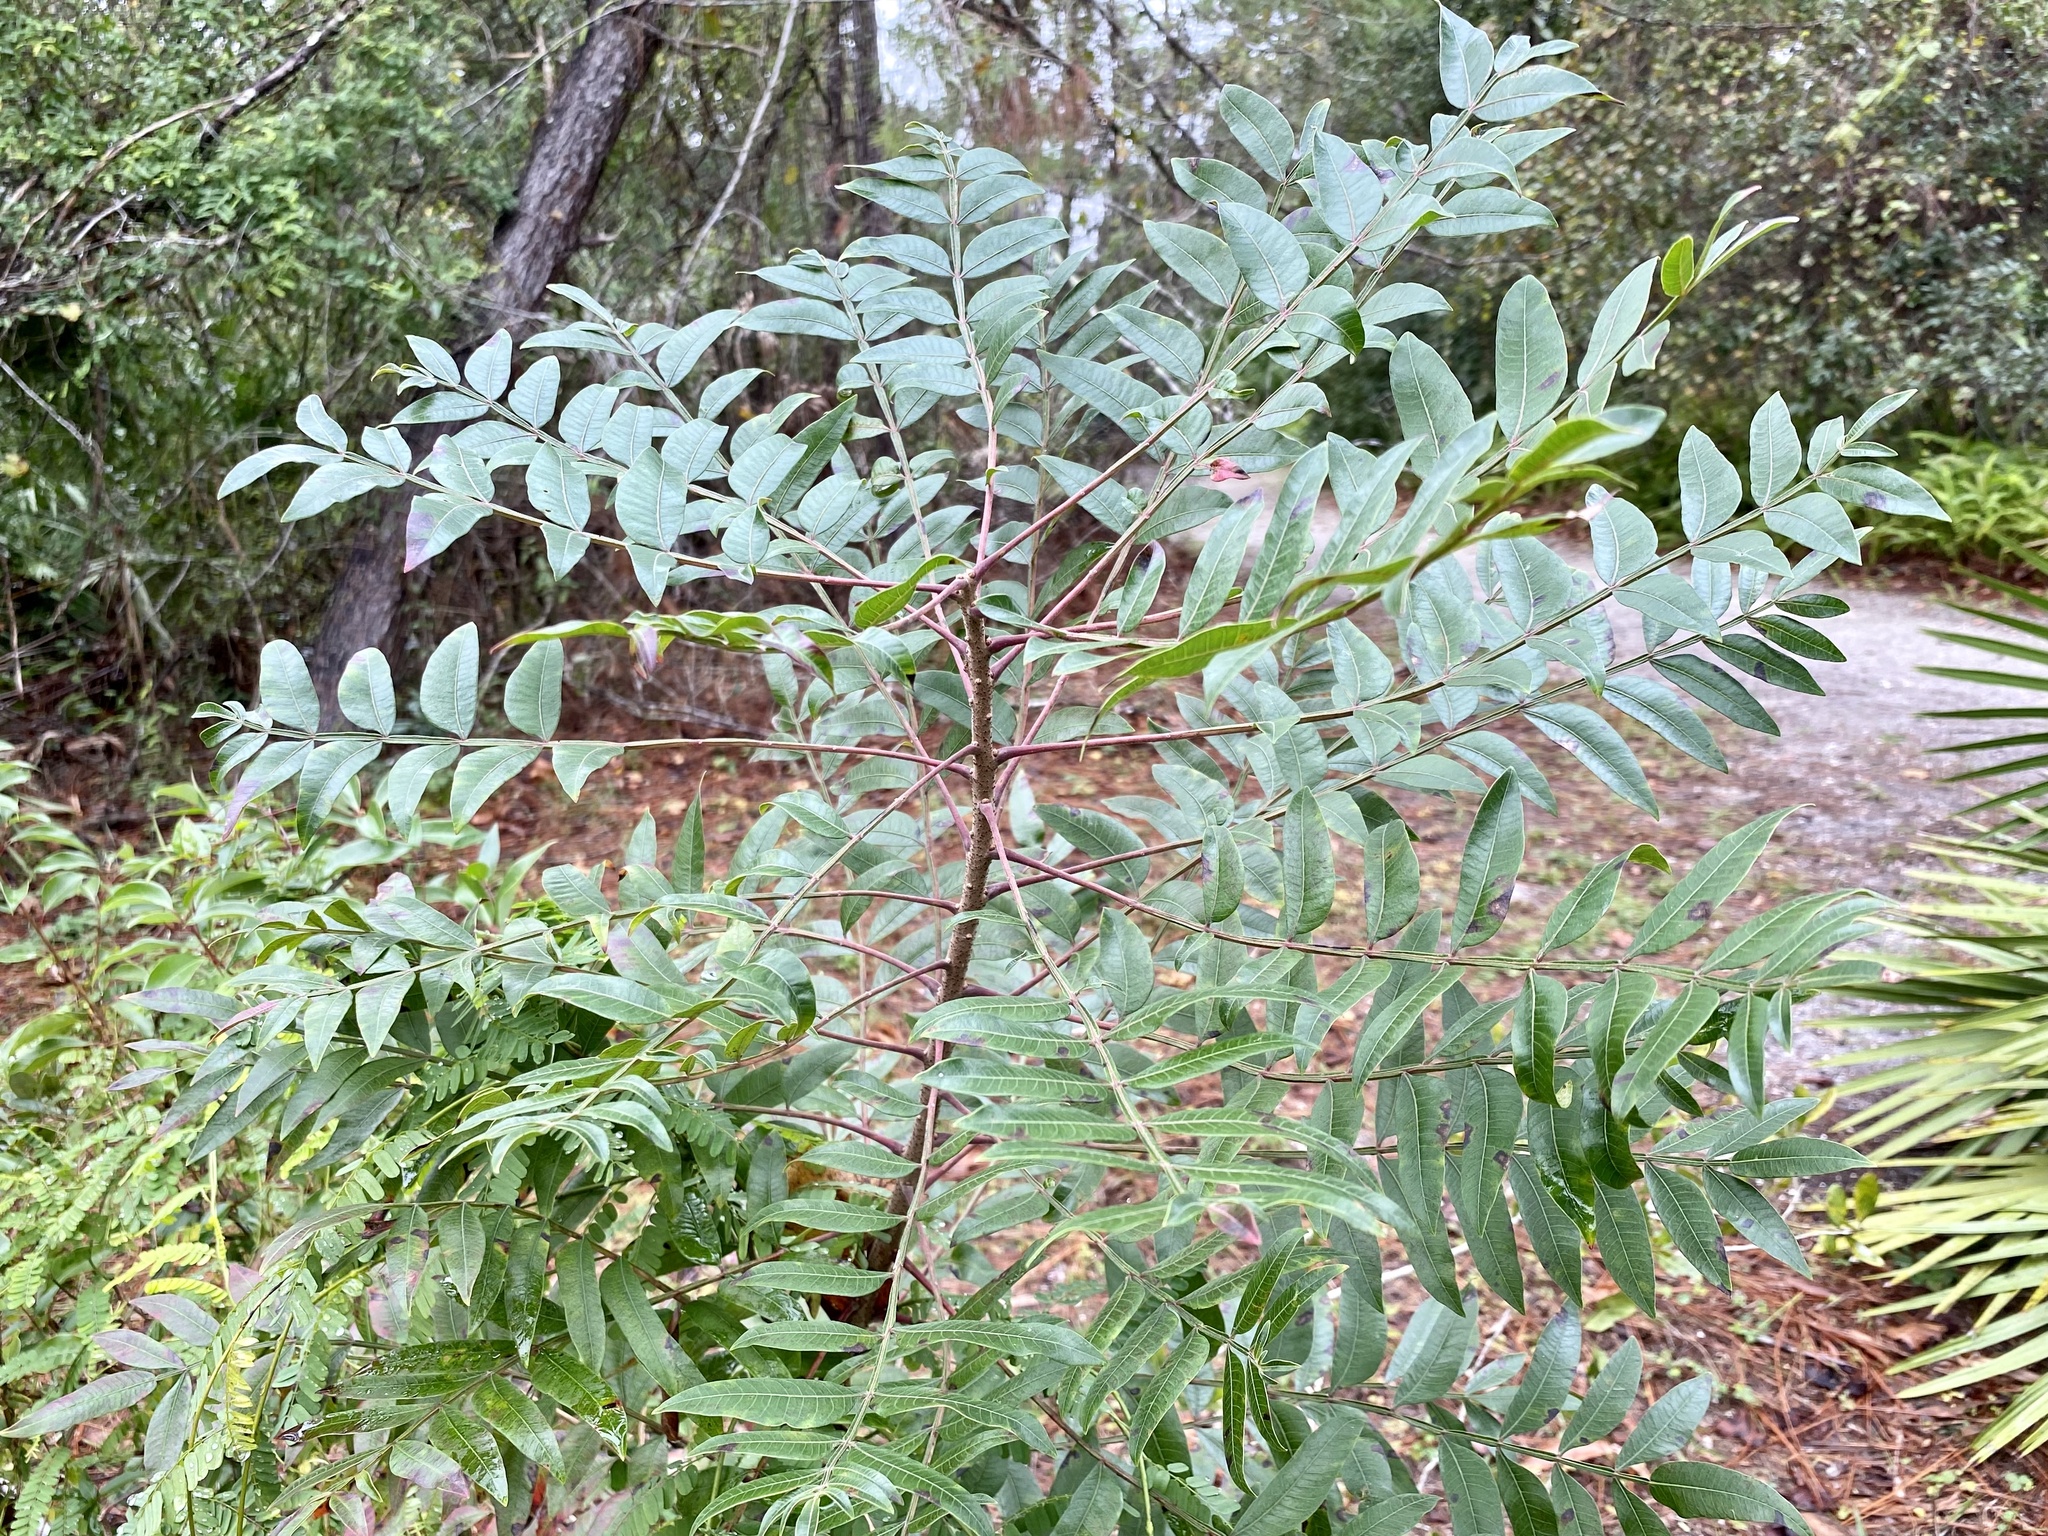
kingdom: Plantae
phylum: Tracheophyta
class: Magnoliopsida
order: Sapindales
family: Anacardiaceae
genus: Rhus
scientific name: Rhus copallina
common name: Shining sumac
